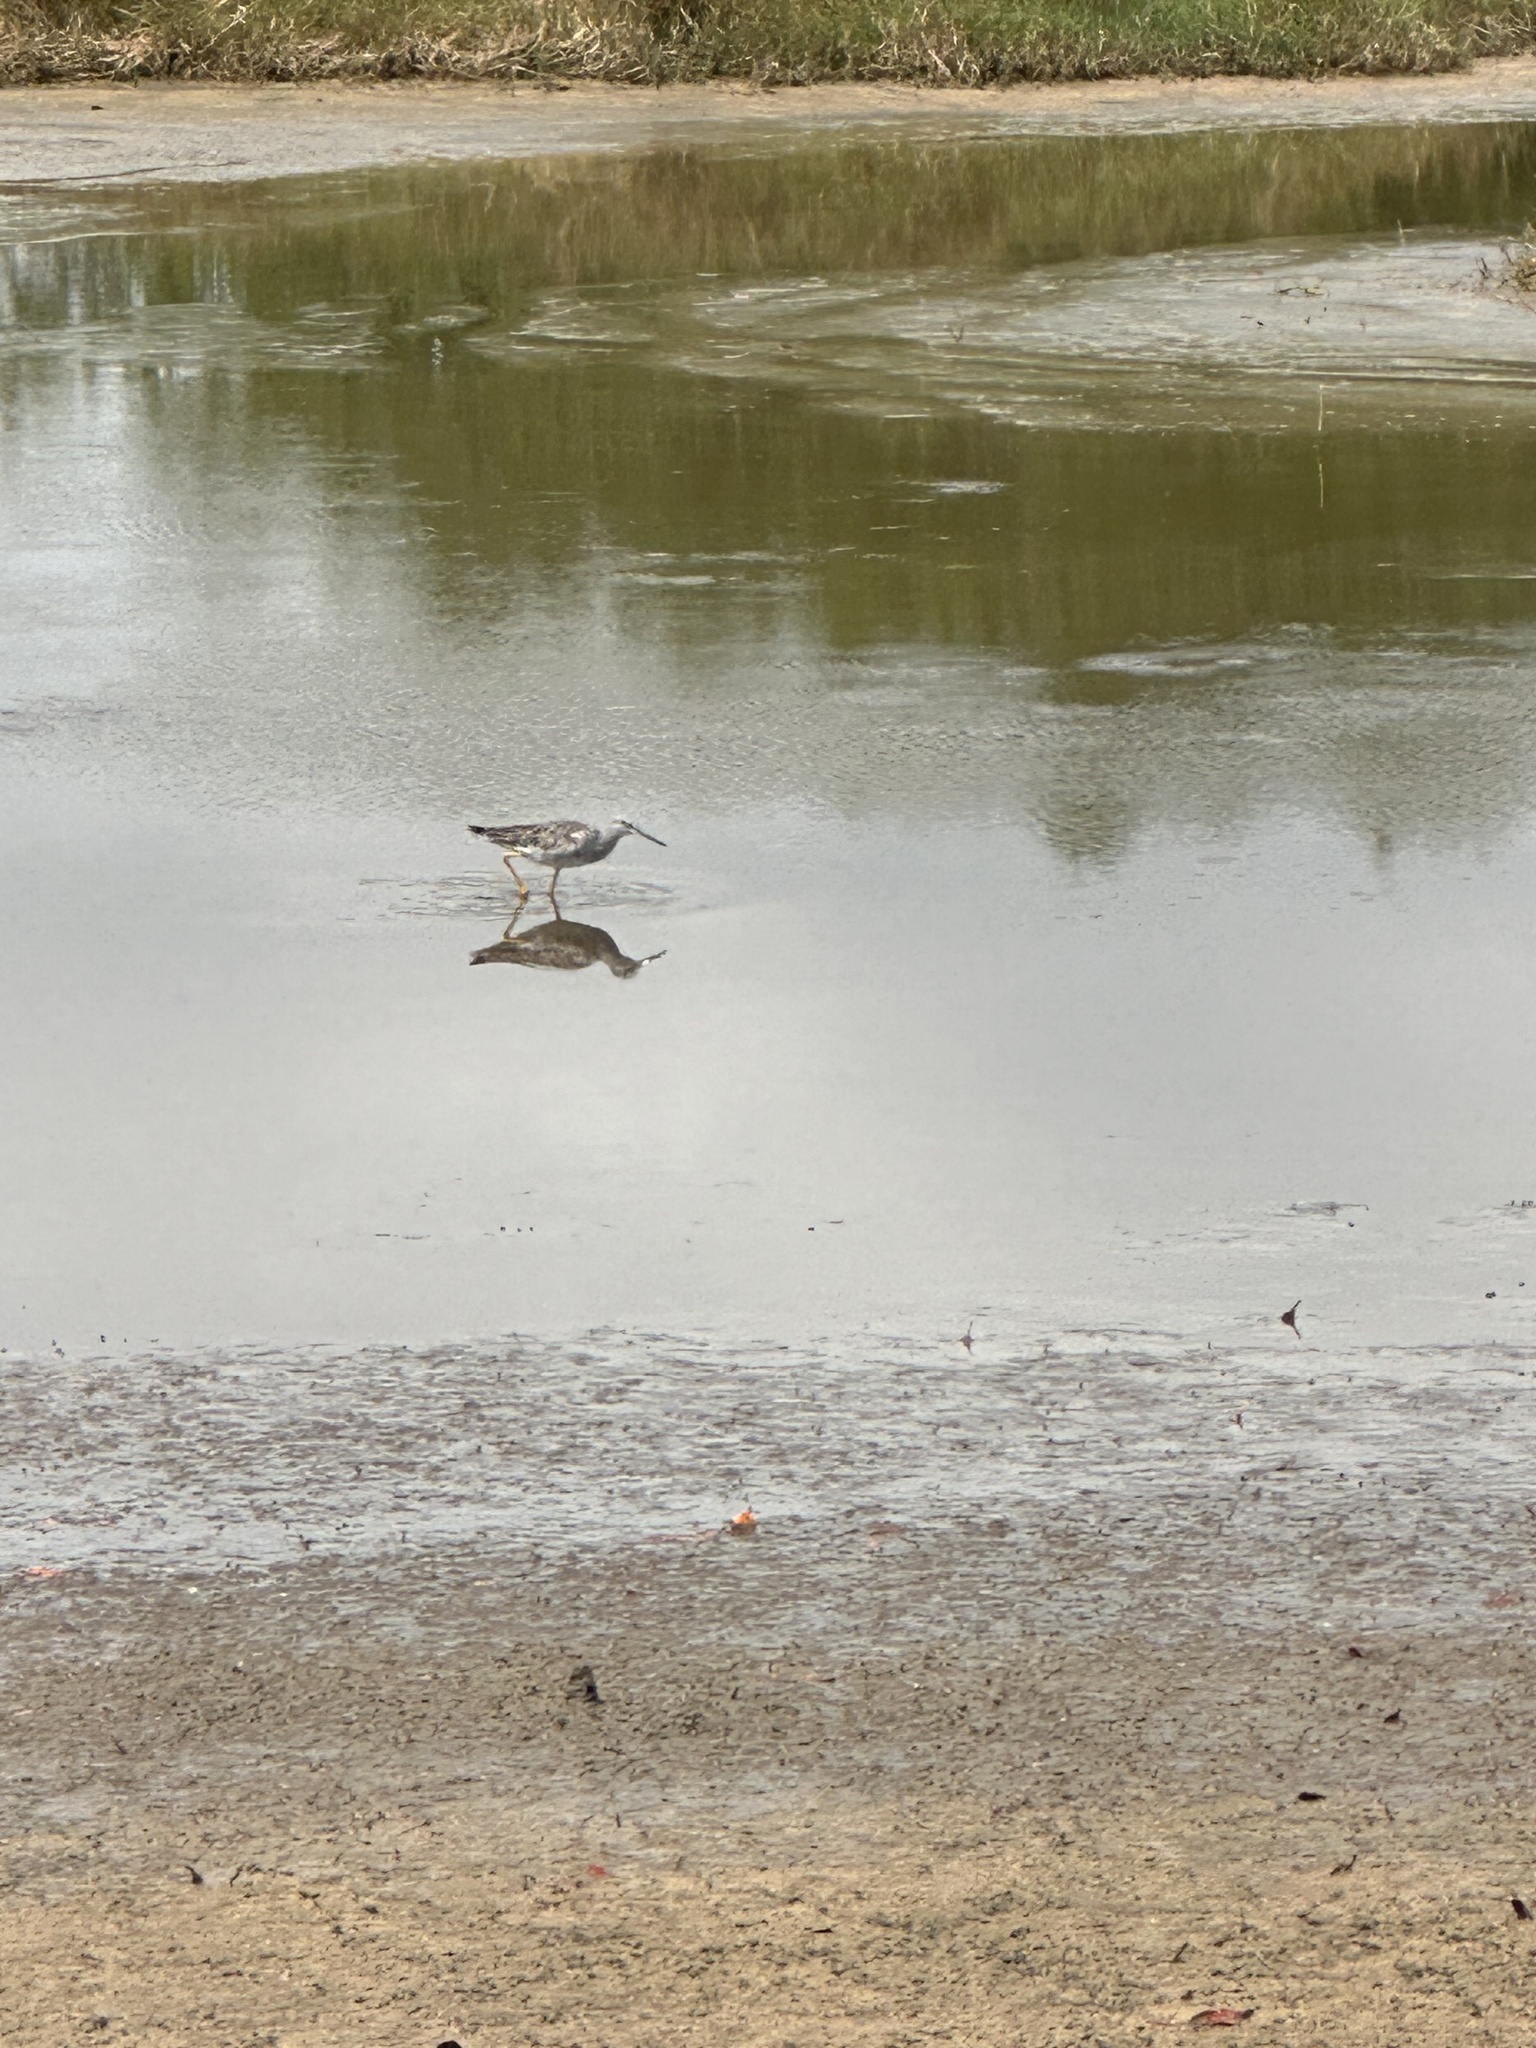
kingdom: Animalia
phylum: Chordata
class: Aves
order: Charadriiformes
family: Scolopacidae
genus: Tringa
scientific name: Tringa melanoleuca
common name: Greater yellowlegs
